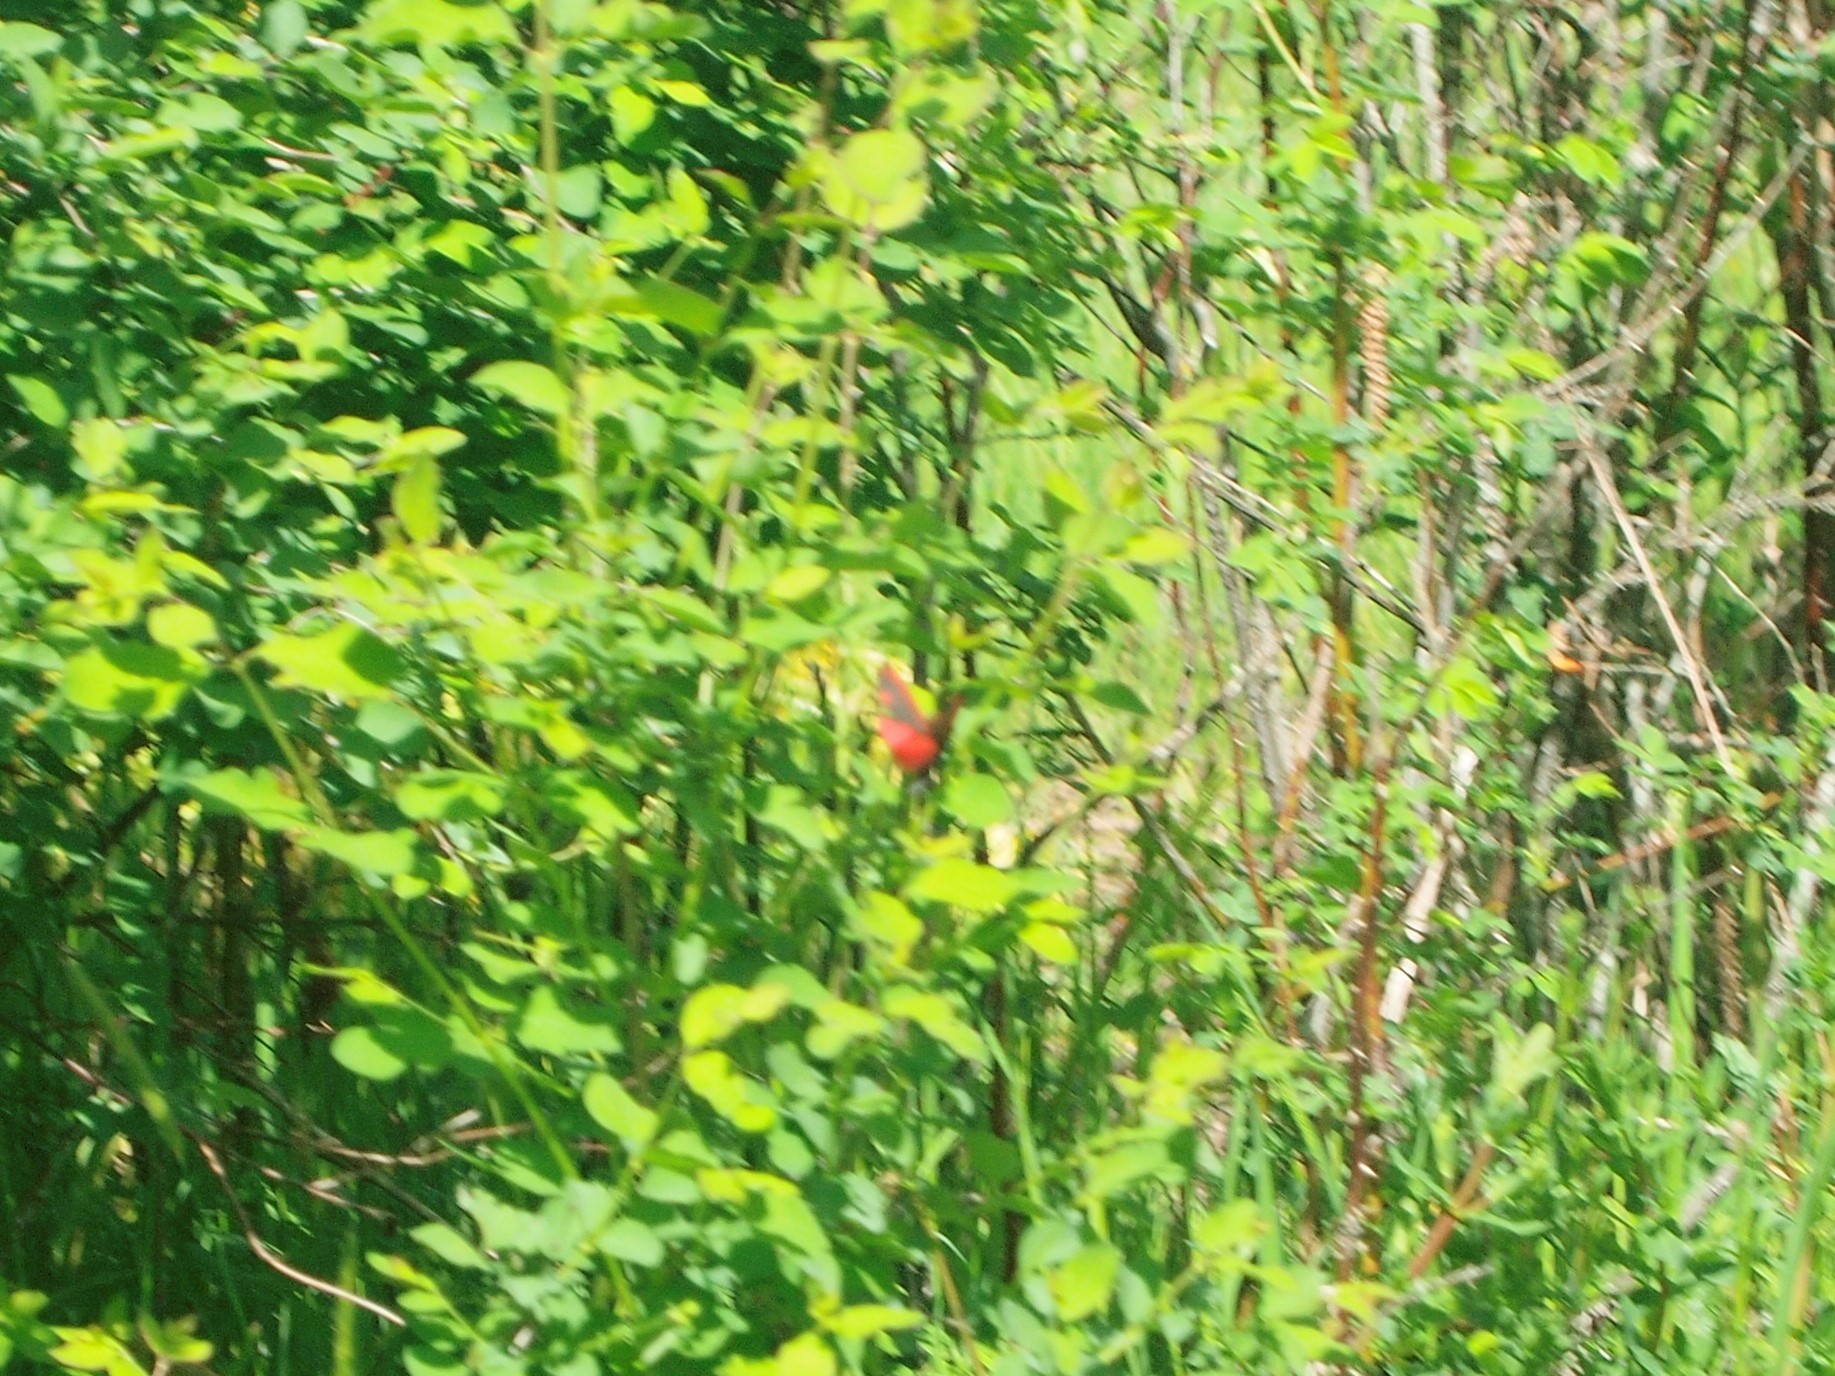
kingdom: Animalia
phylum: Arthropoda
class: Insecta
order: Lepidoptera
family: Erebidae
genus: Tyria
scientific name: Tyria jacobaeae
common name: Cinnabar
